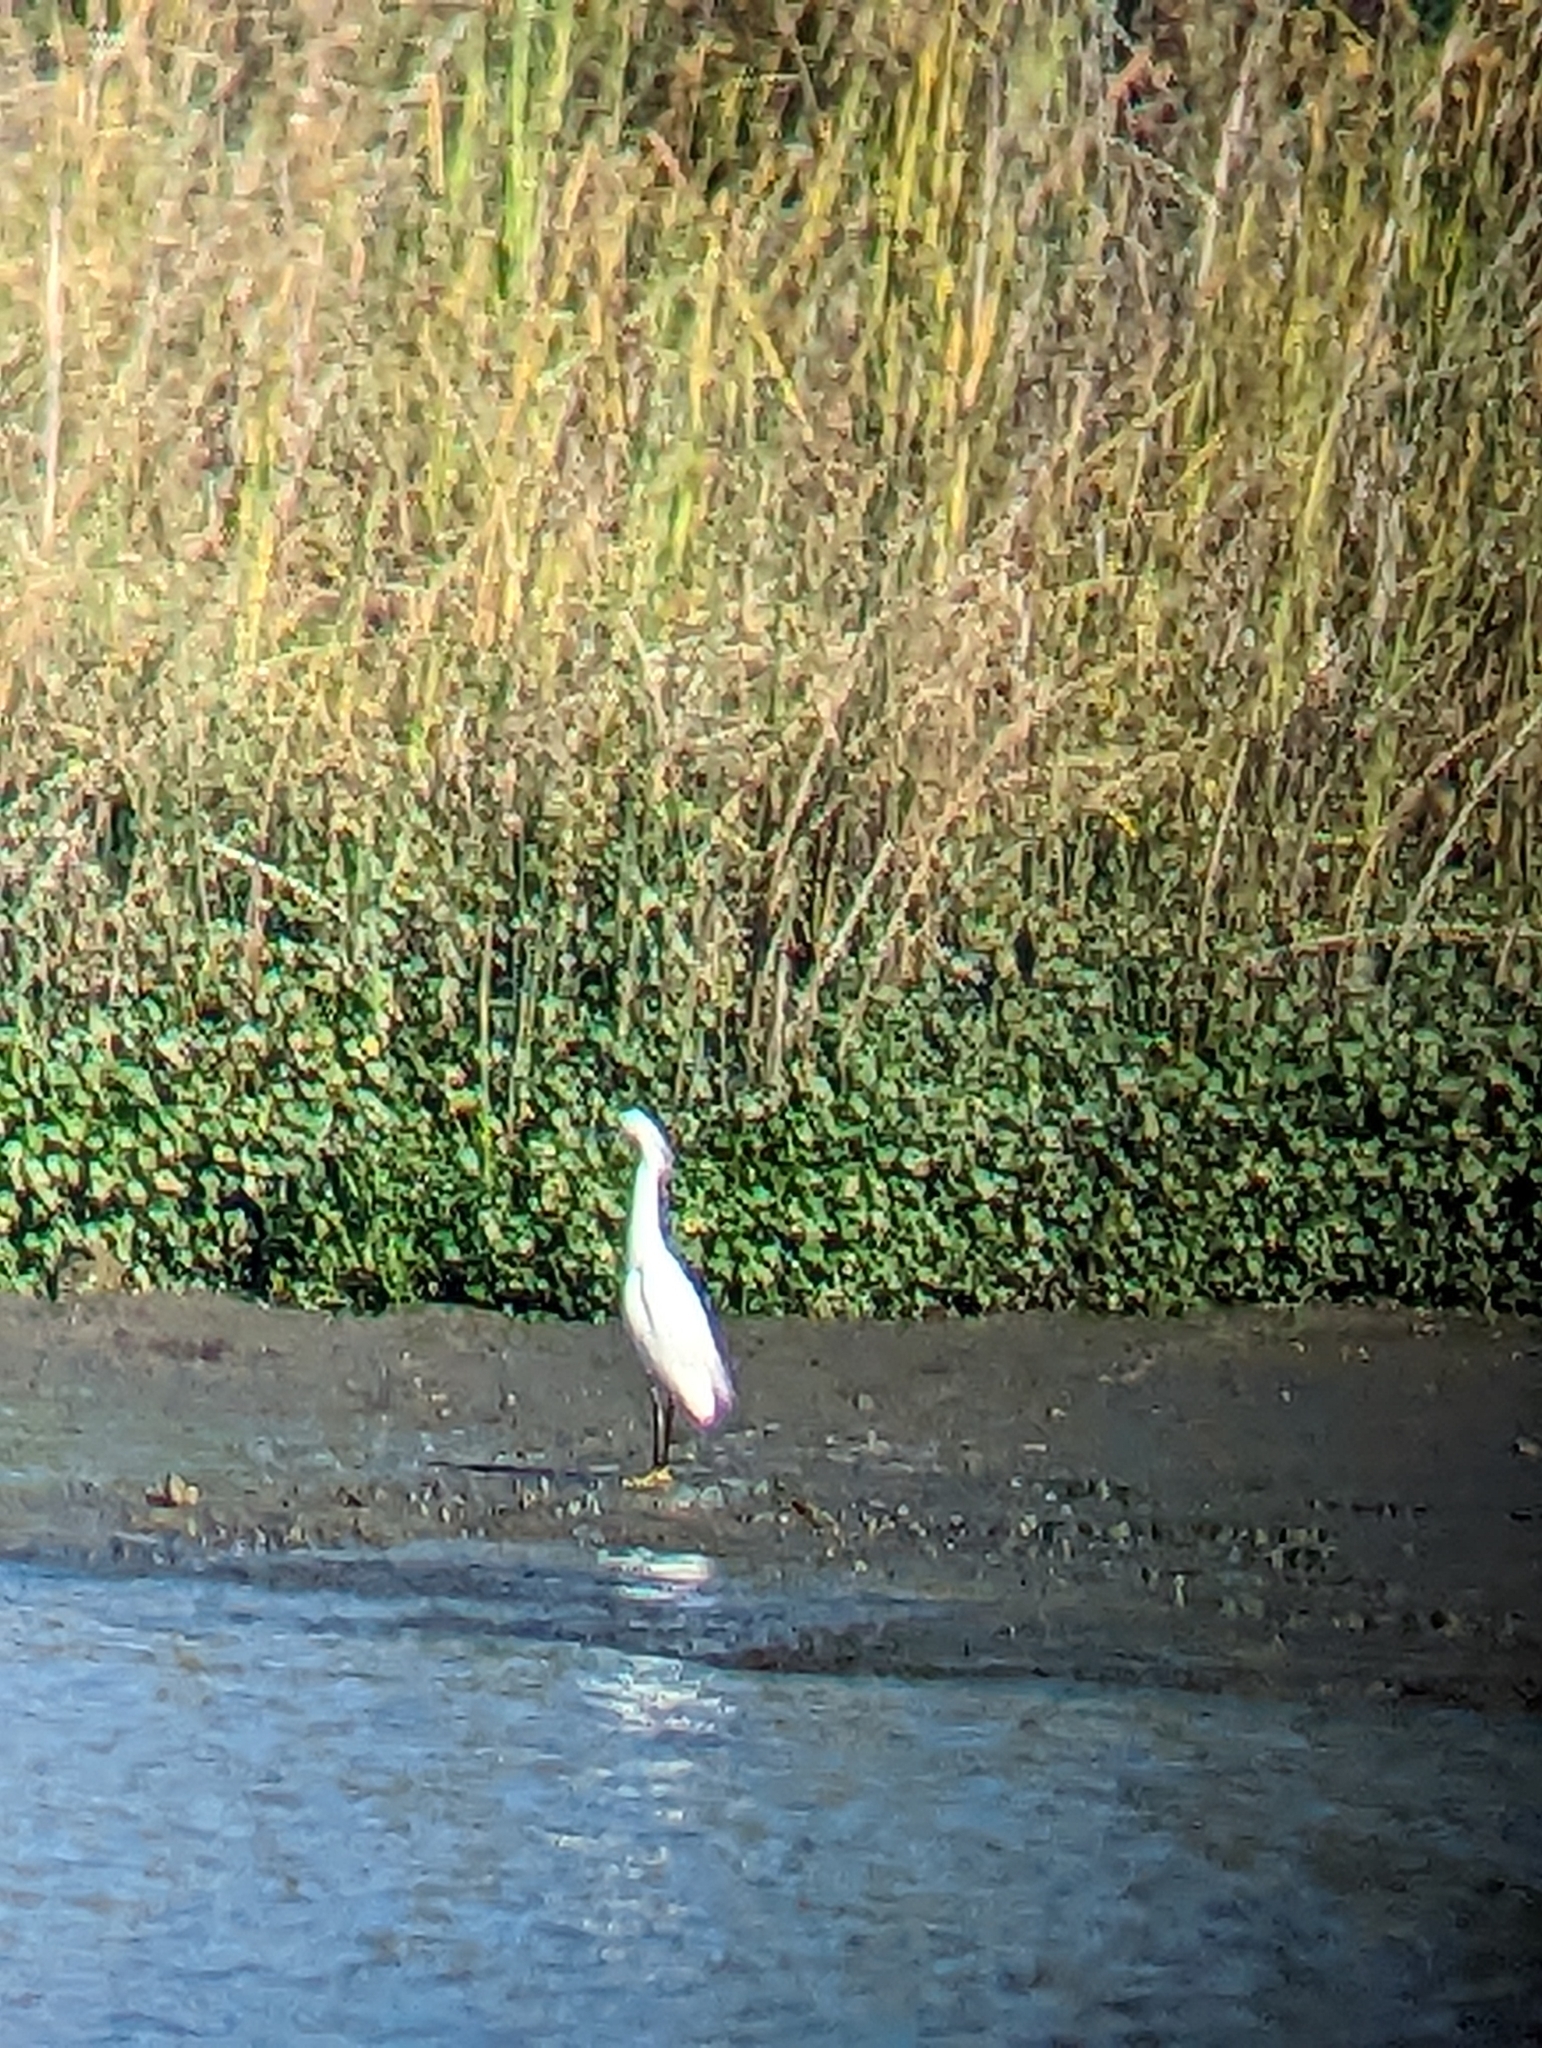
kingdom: Animalia
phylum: Chordata
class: Aves
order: Pelecaniformes
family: Ardeidae
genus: Egretta
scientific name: Egretta thula
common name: Snowy egret
